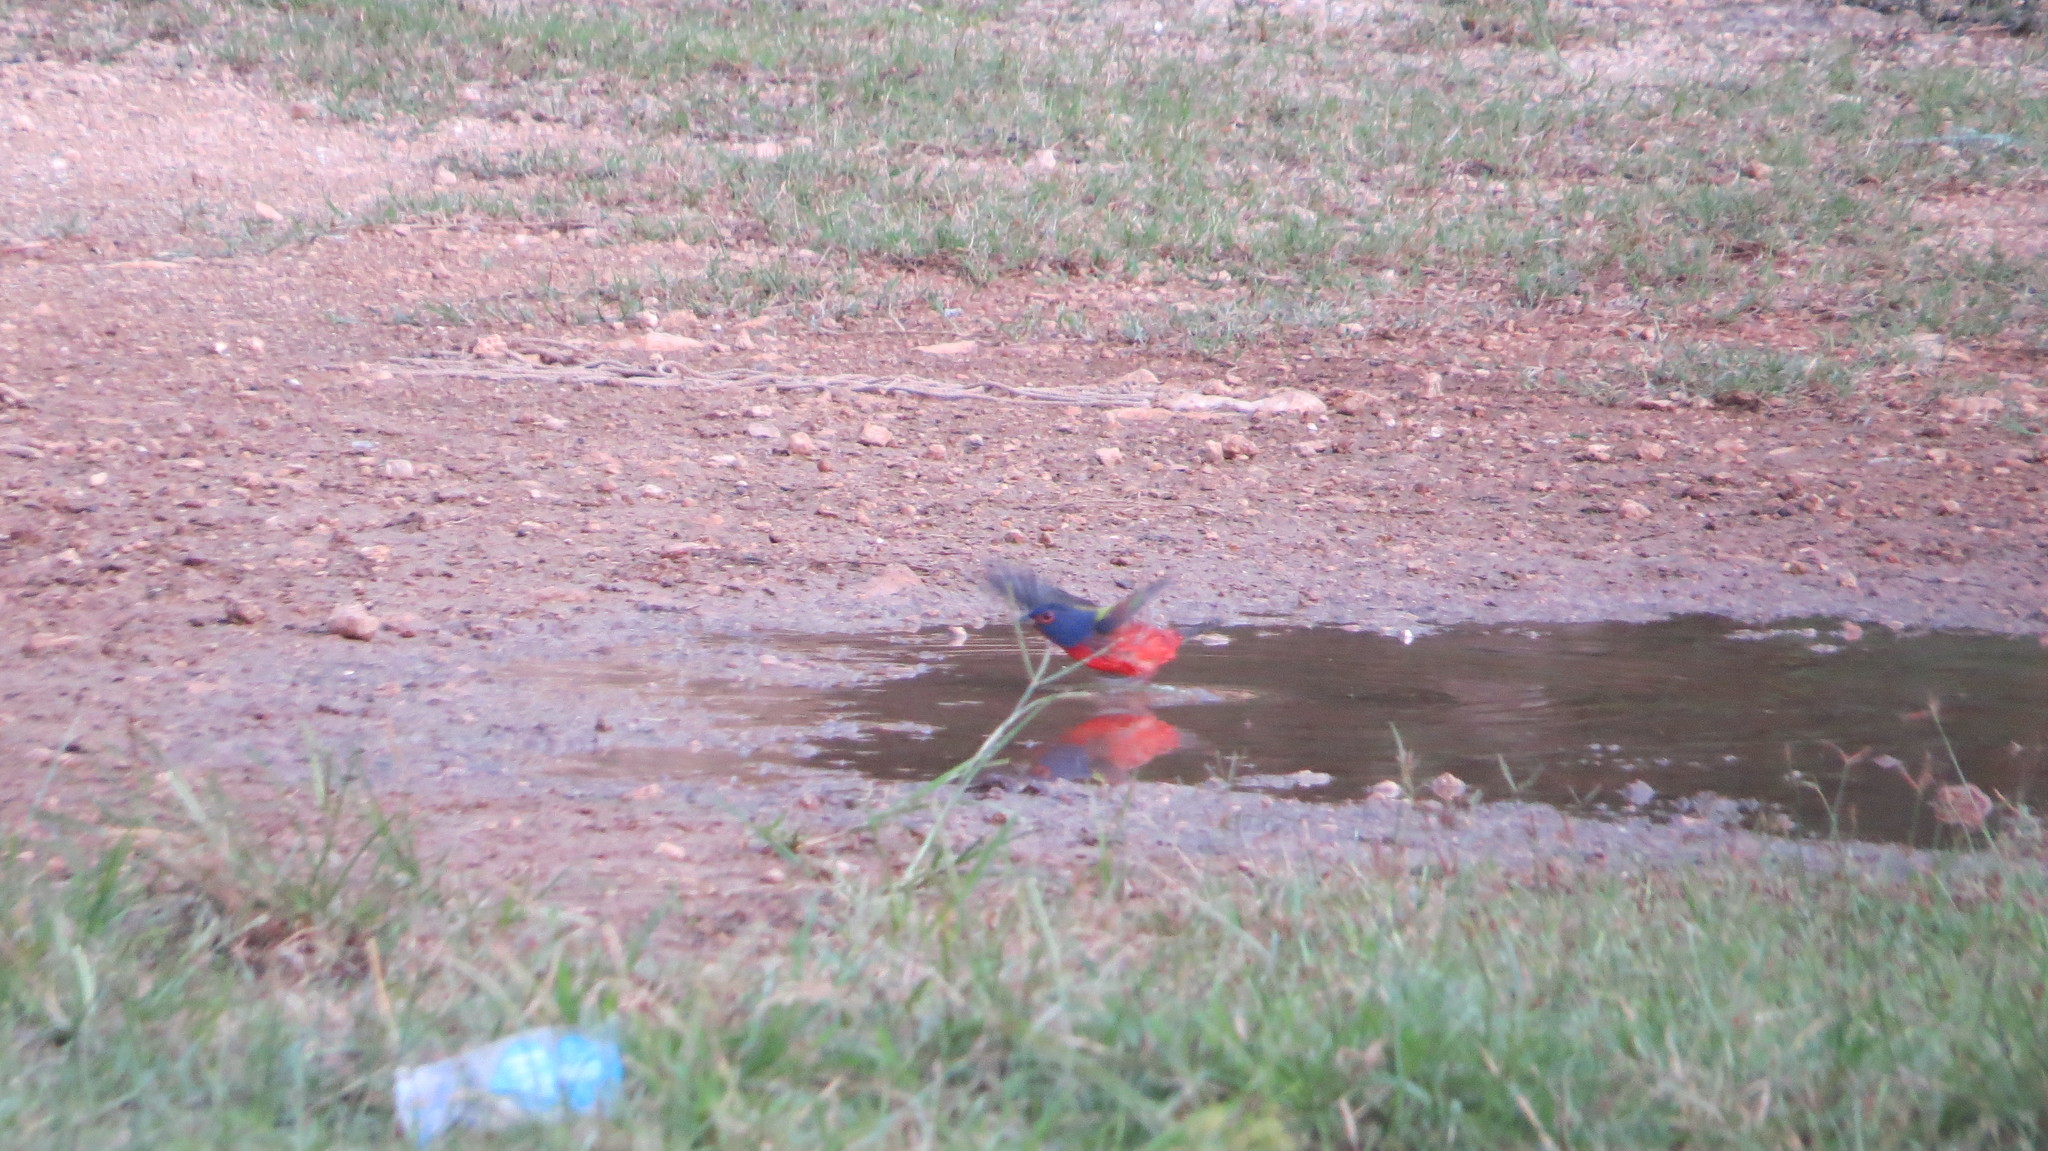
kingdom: Animalia
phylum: Chordata
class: Aves
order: Passeriformes
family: Cardinalidae
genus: Passerina
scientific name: Passerina ciris
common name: Painted bunting
